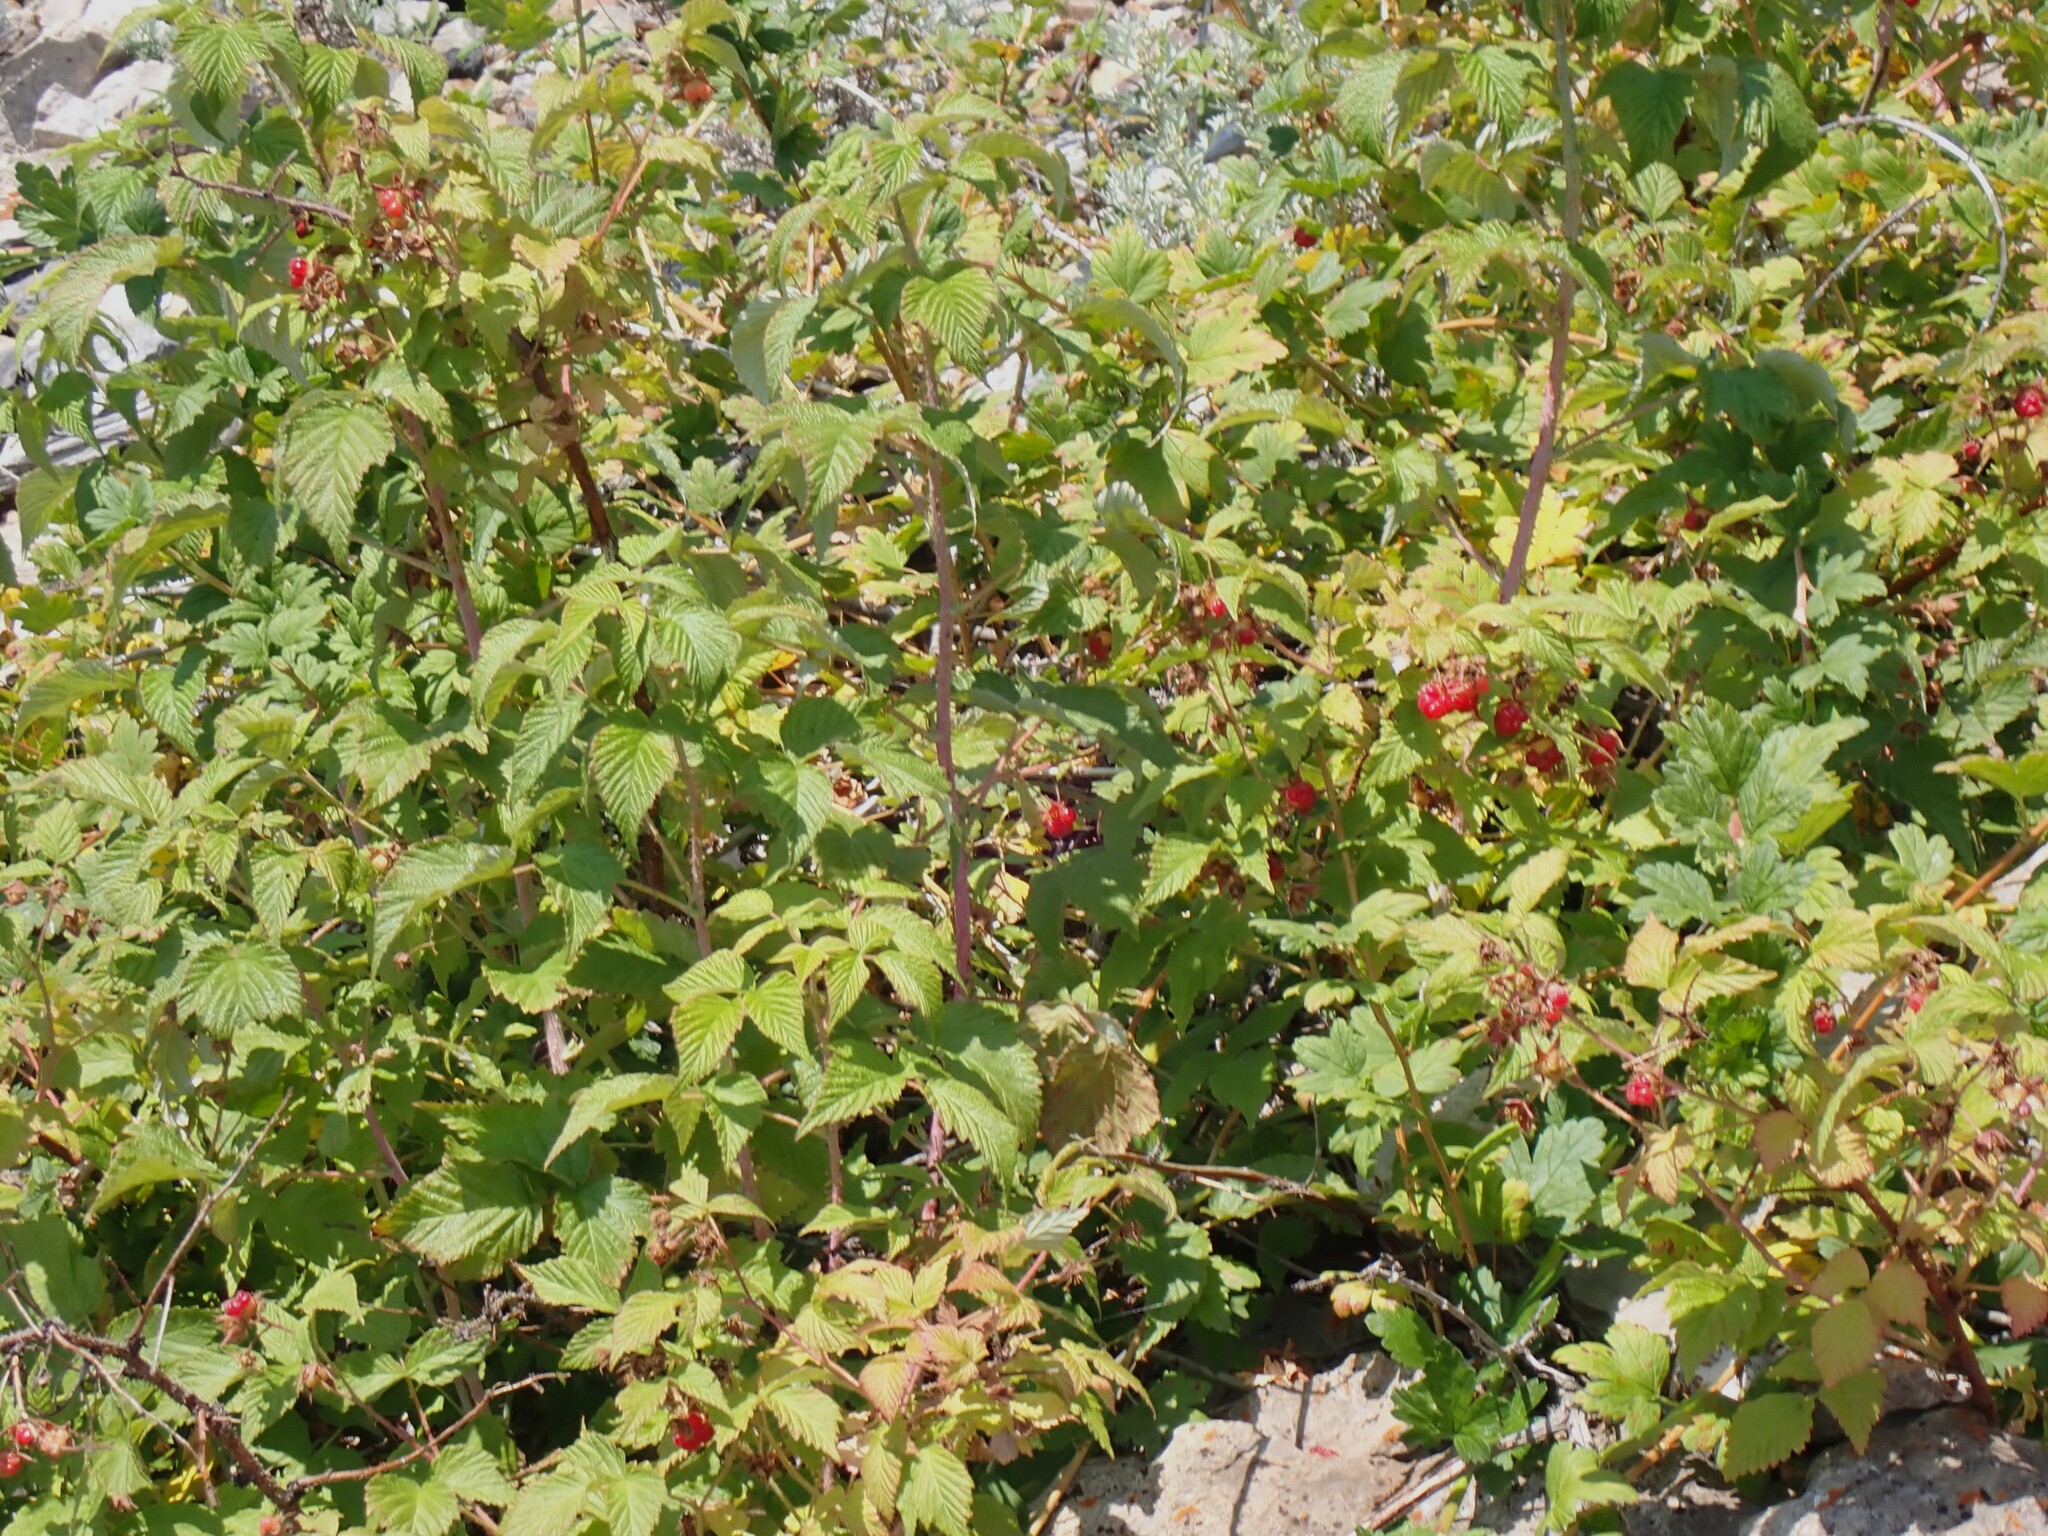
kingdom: Plantae
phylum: Tracheophyta
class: Magnoliopsida
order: Rosales
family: Rosaceae
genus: Rubus
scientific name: Rubus idaeus
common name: Raspberry
